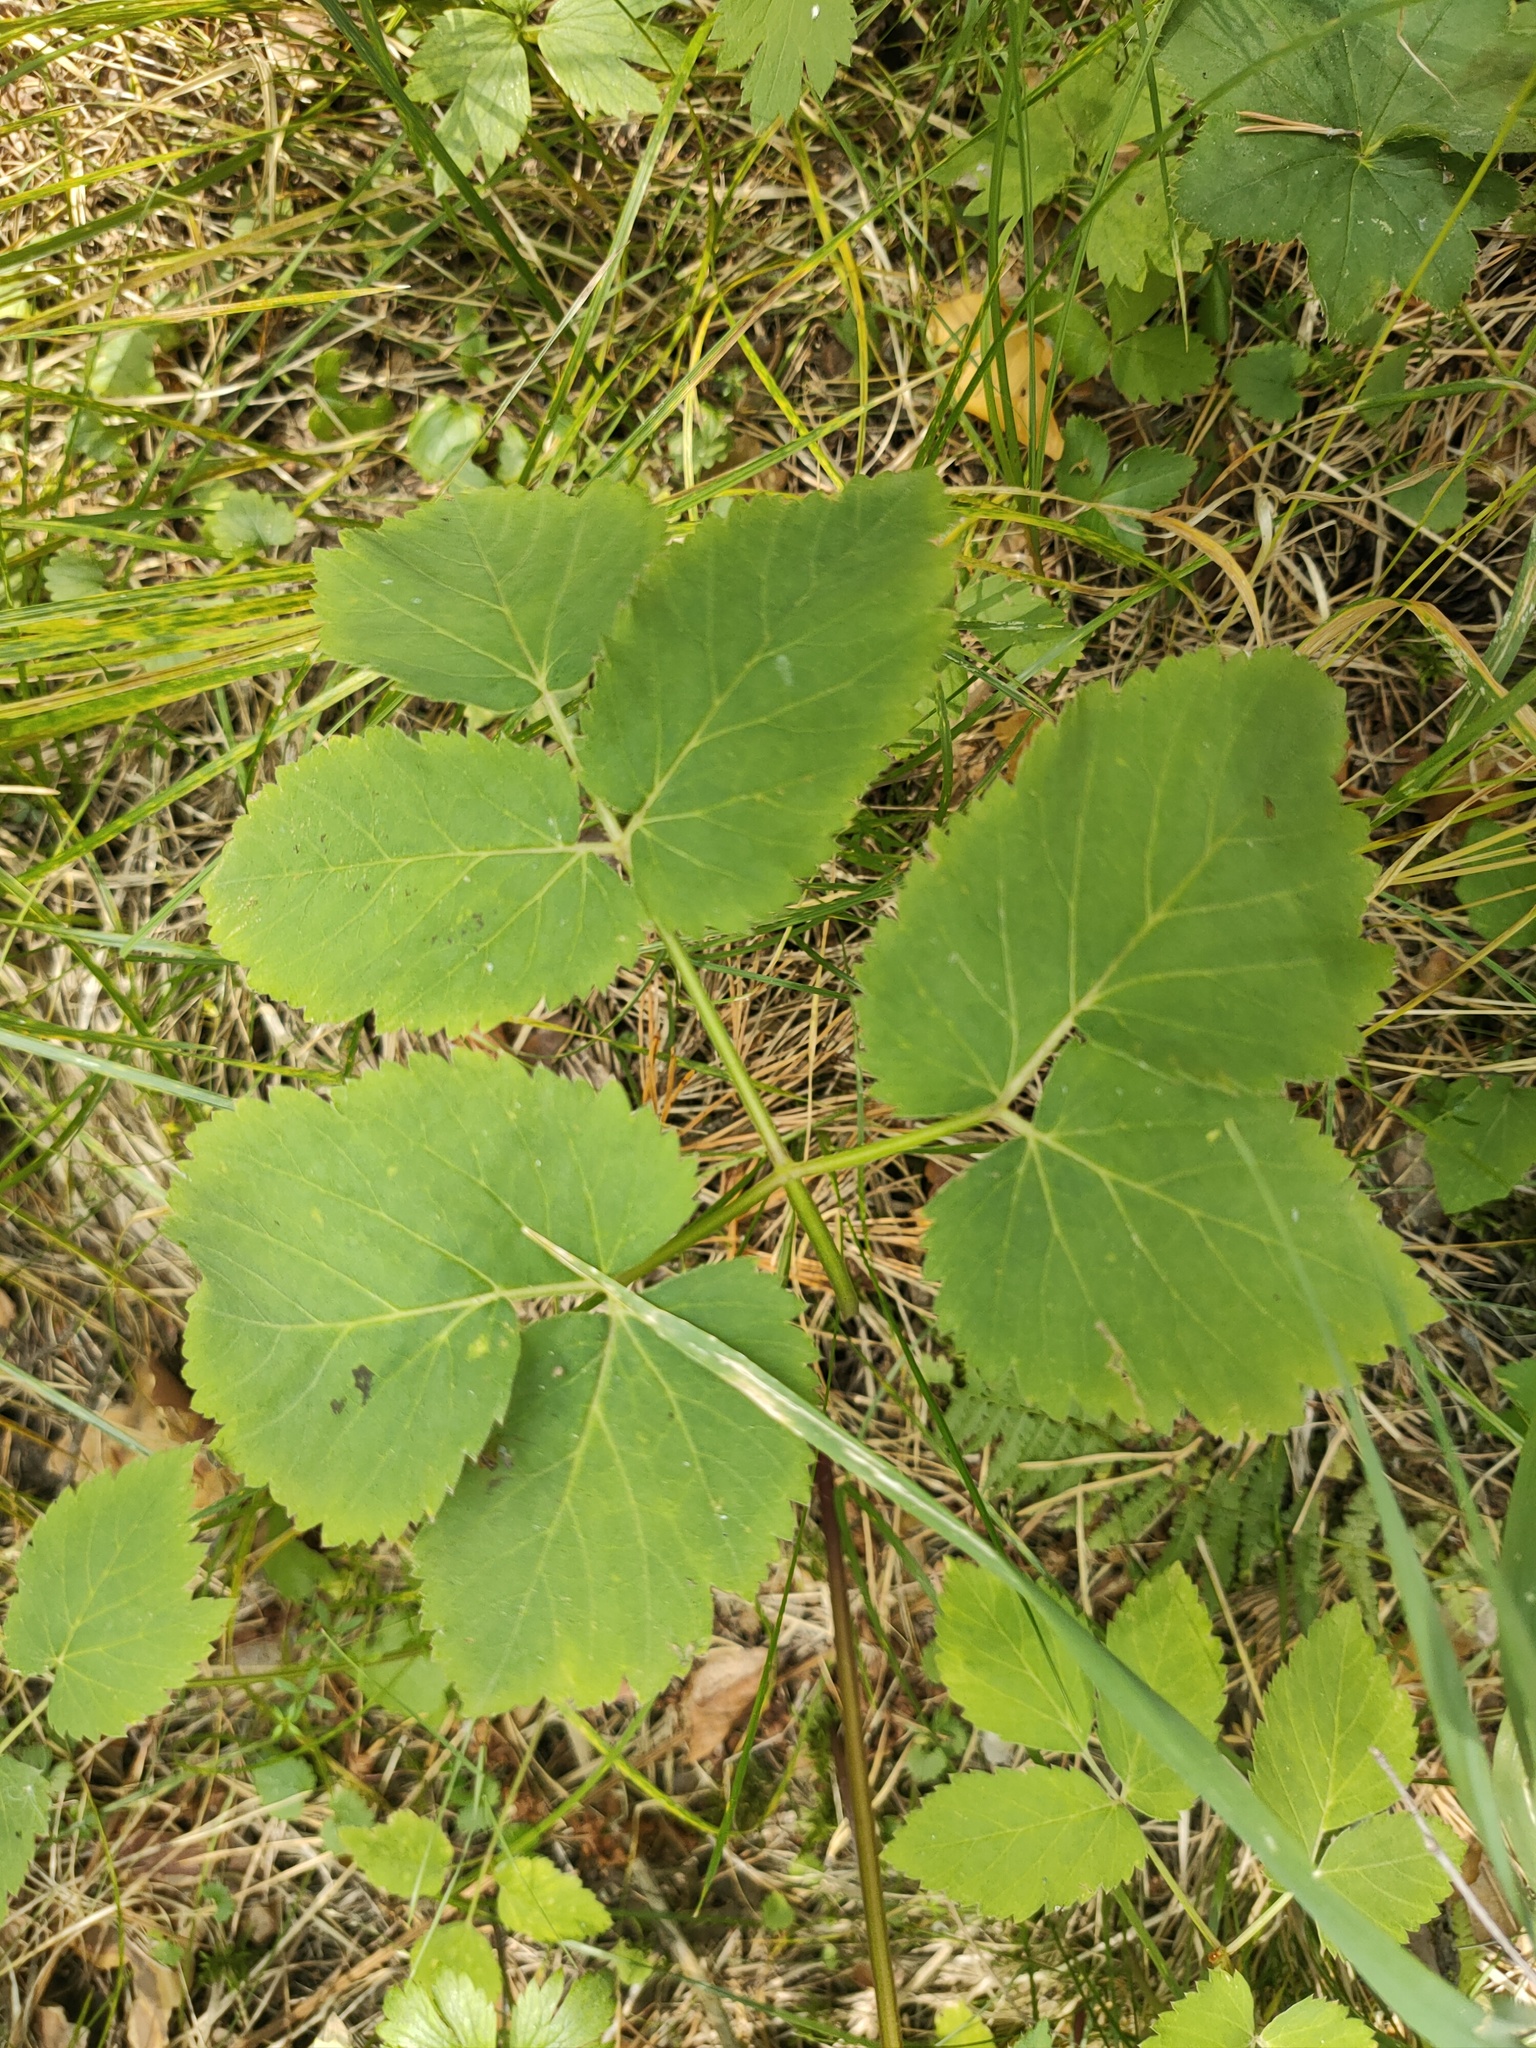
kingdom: Plantae
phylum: Tracheophyta
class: Magnoliopsida
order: Apiales
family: Apiaceae
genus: Aegopodium
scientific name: Aegopodium podagraria
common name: Ground-elder
